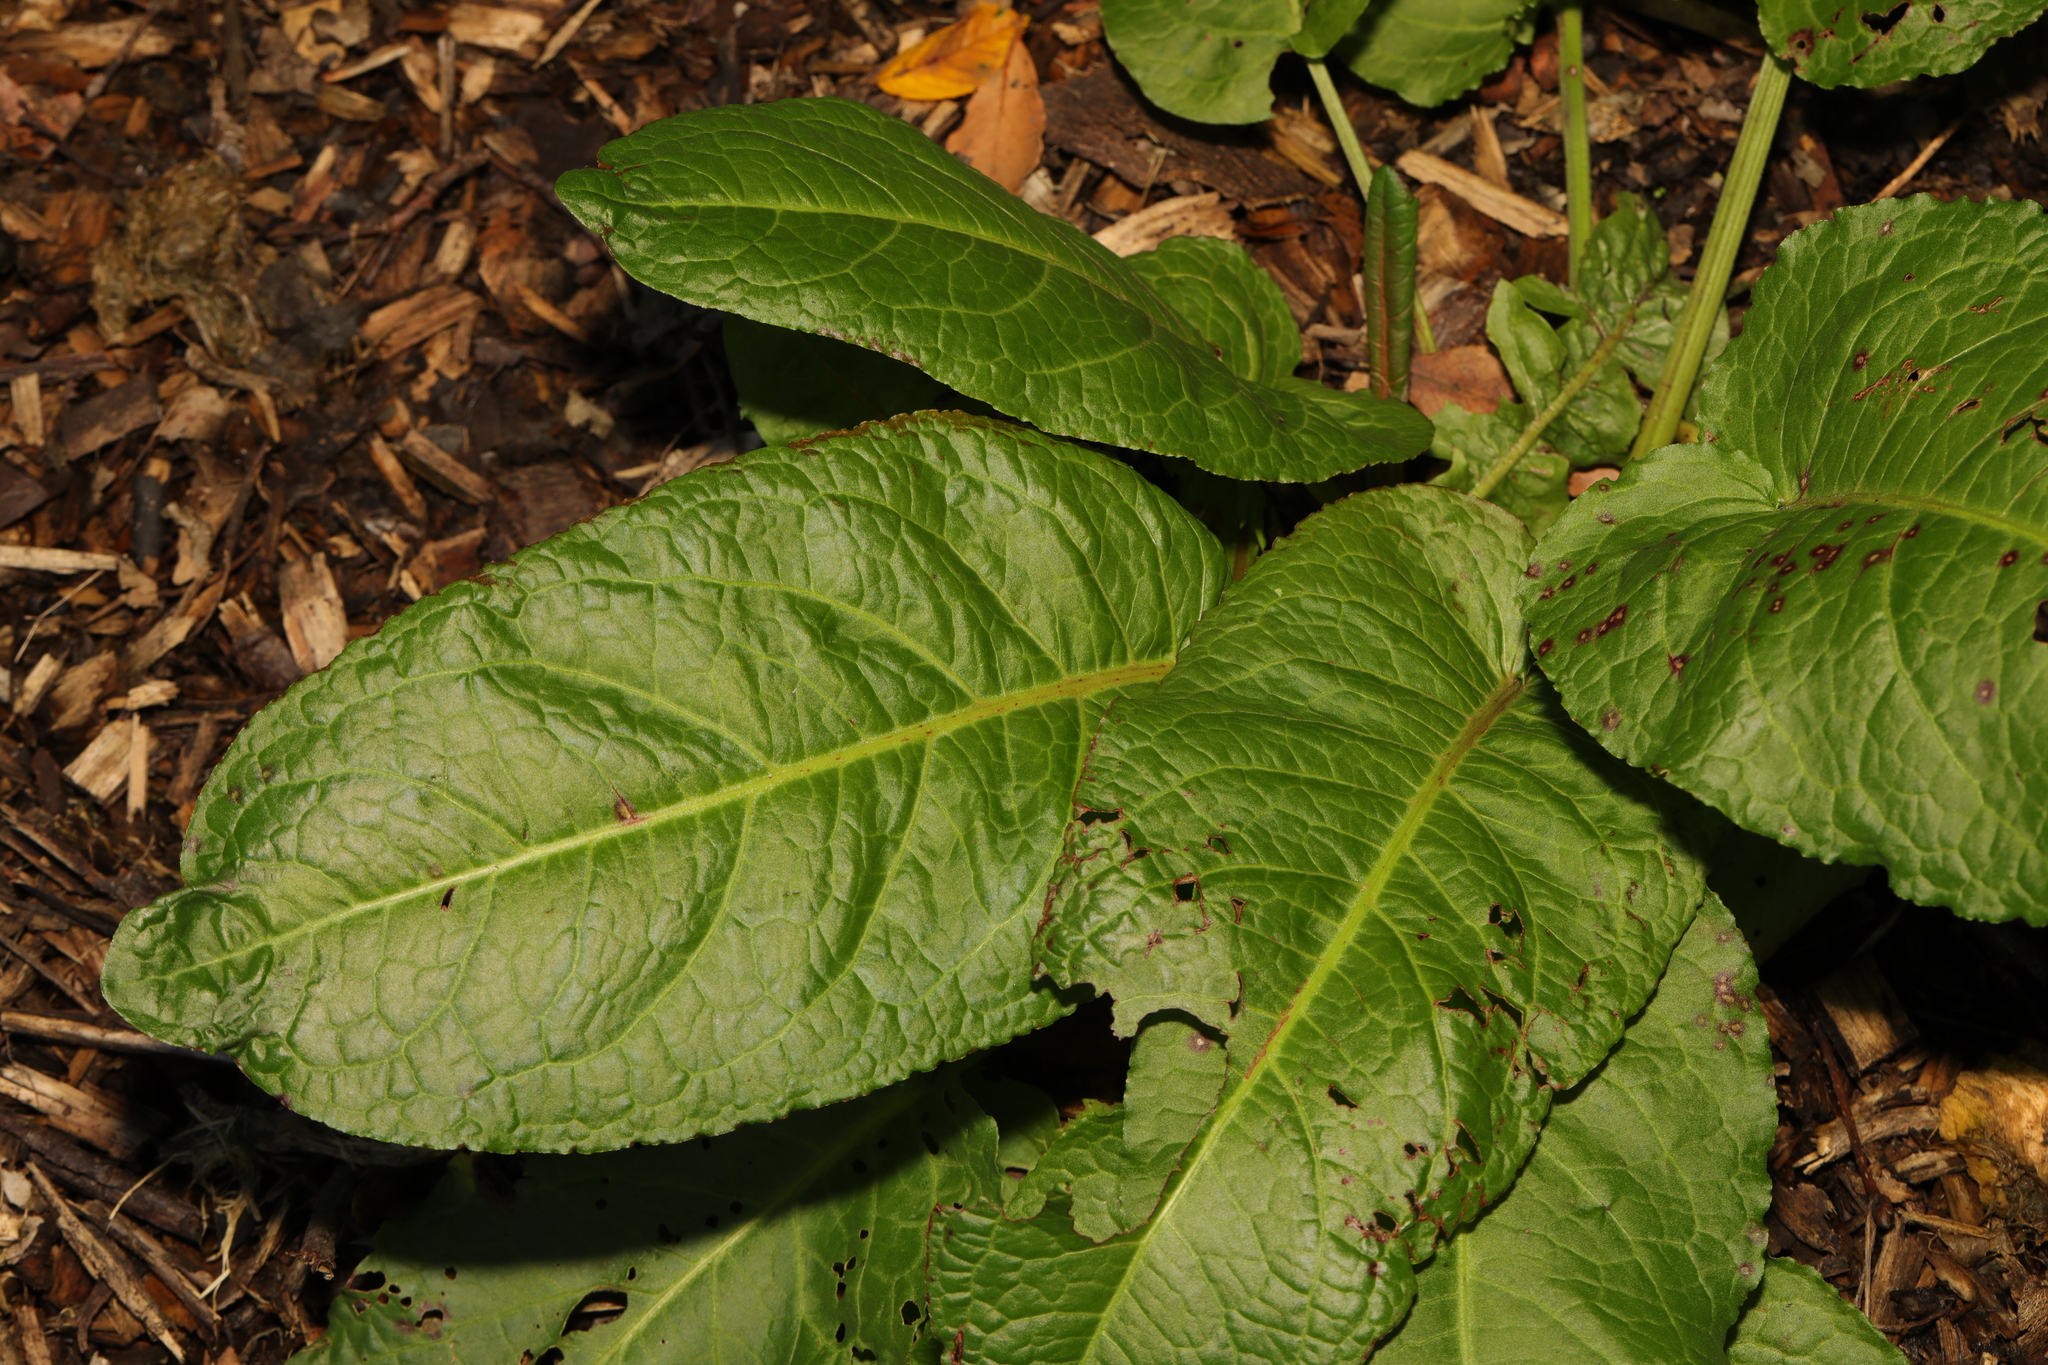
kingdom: Plantae
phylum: Tracheophyta
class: Magnoliopsida
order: Caryophyllales
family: Polygonaceae
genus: Rumex
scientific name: Rumex obtusifolius
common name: Bitter dock
